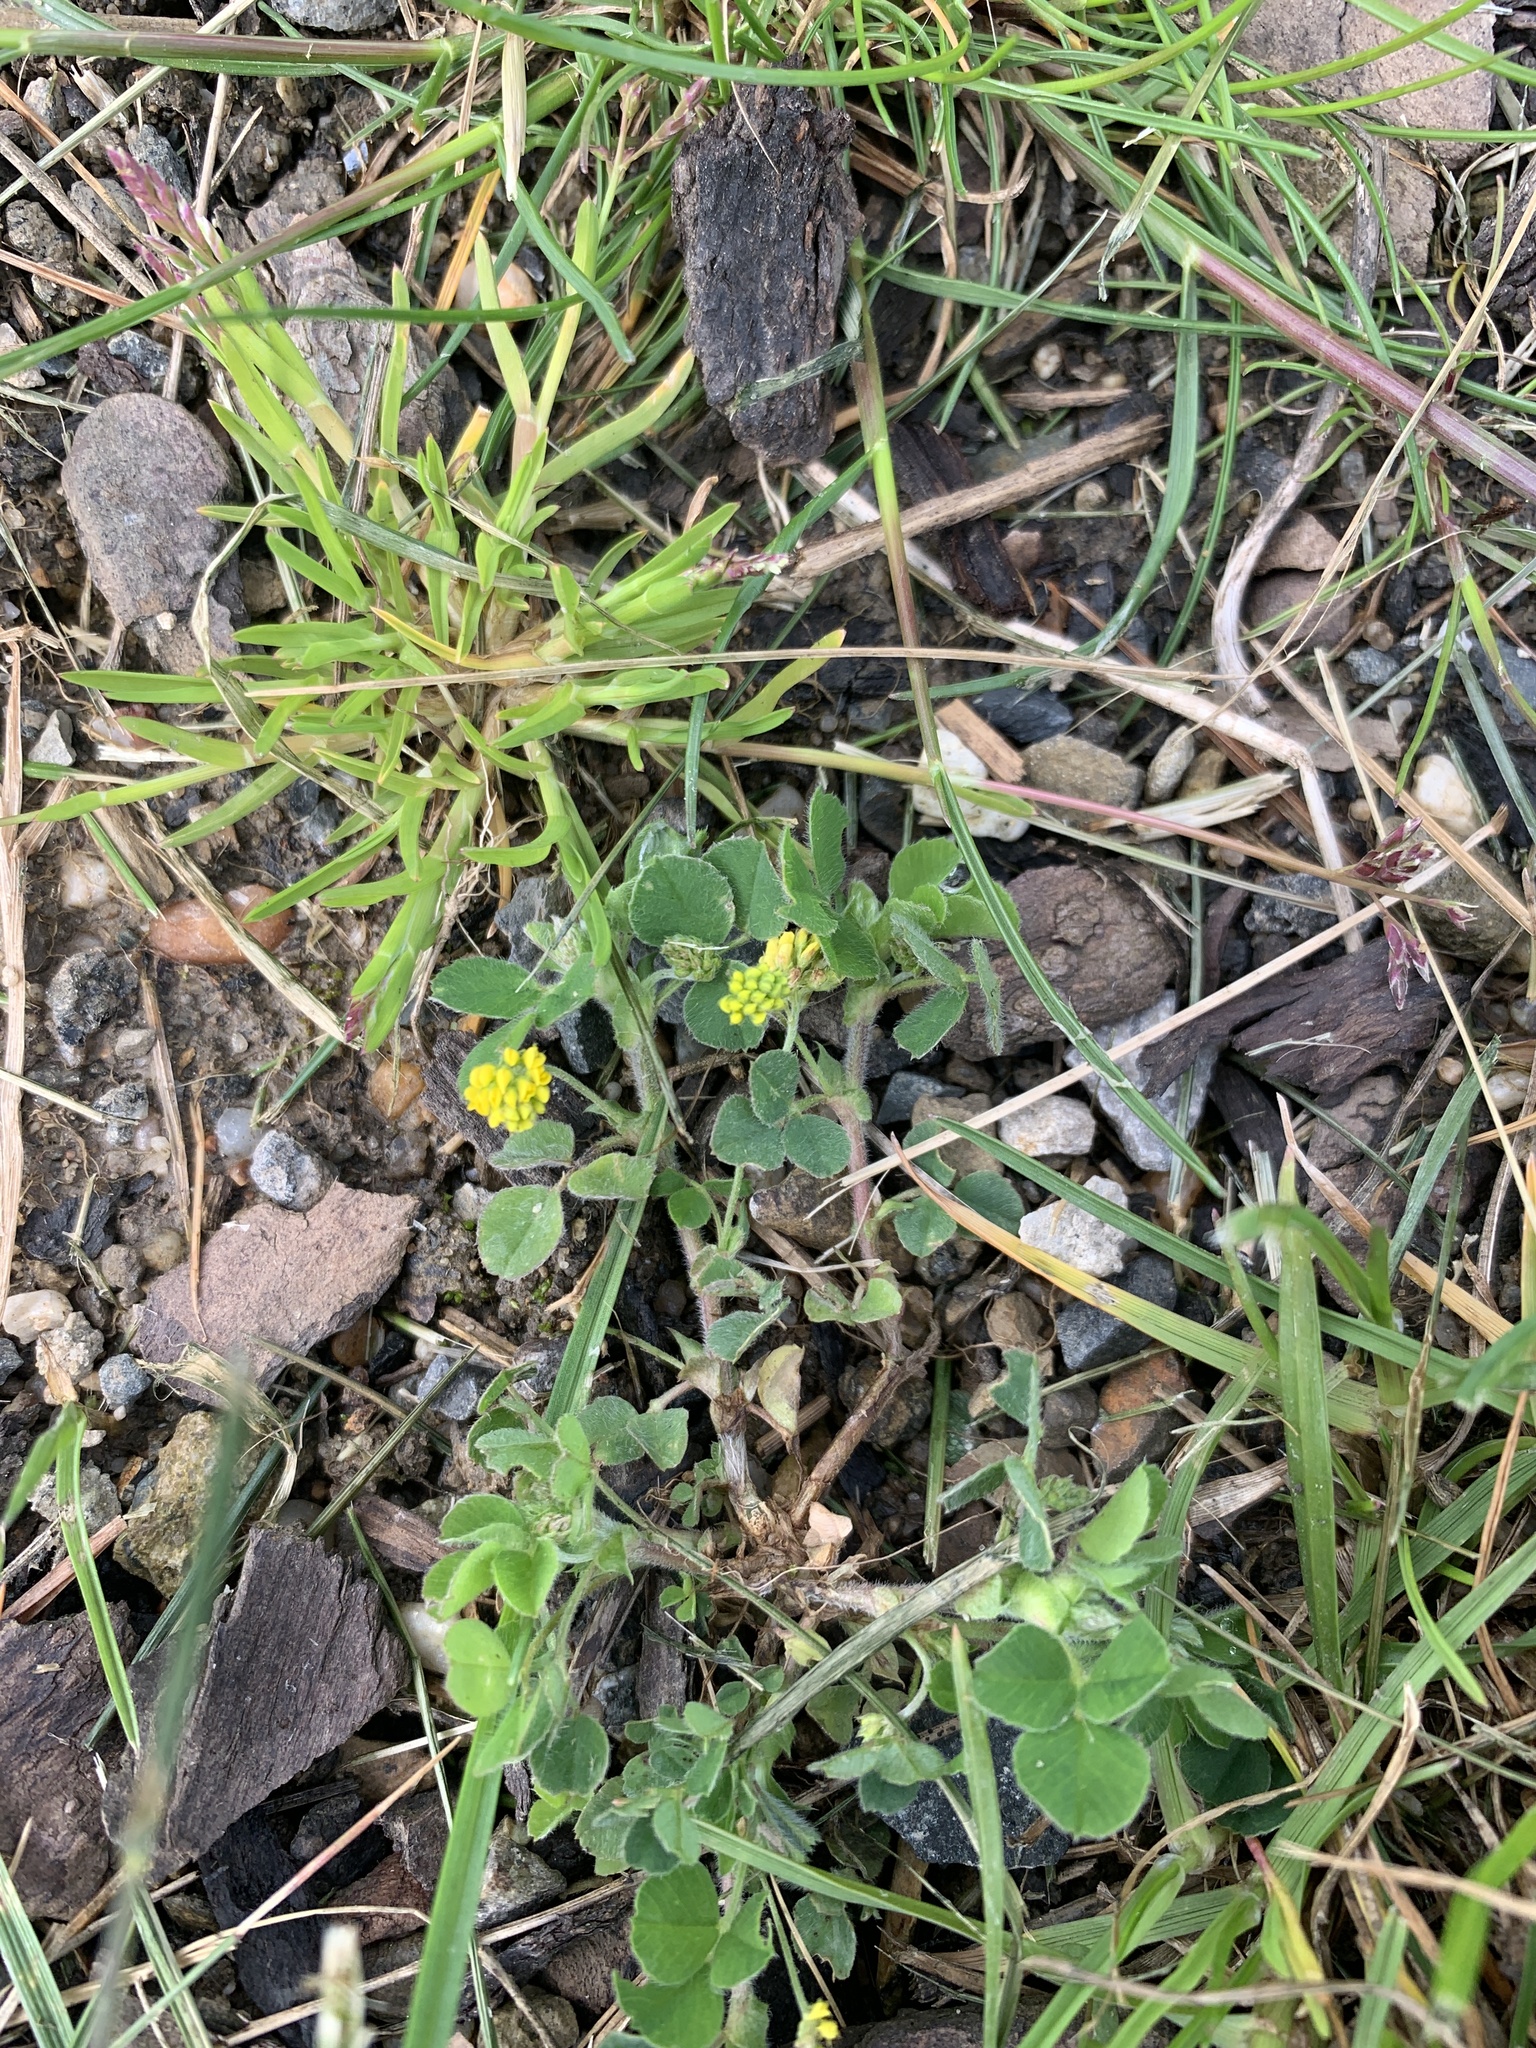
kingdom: Plantae
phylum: Tracheophyta
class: Magnoliopsida
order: Fabales
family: Fabaceae
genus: Medicago
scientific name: Medicago lupulina
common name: Black medick
